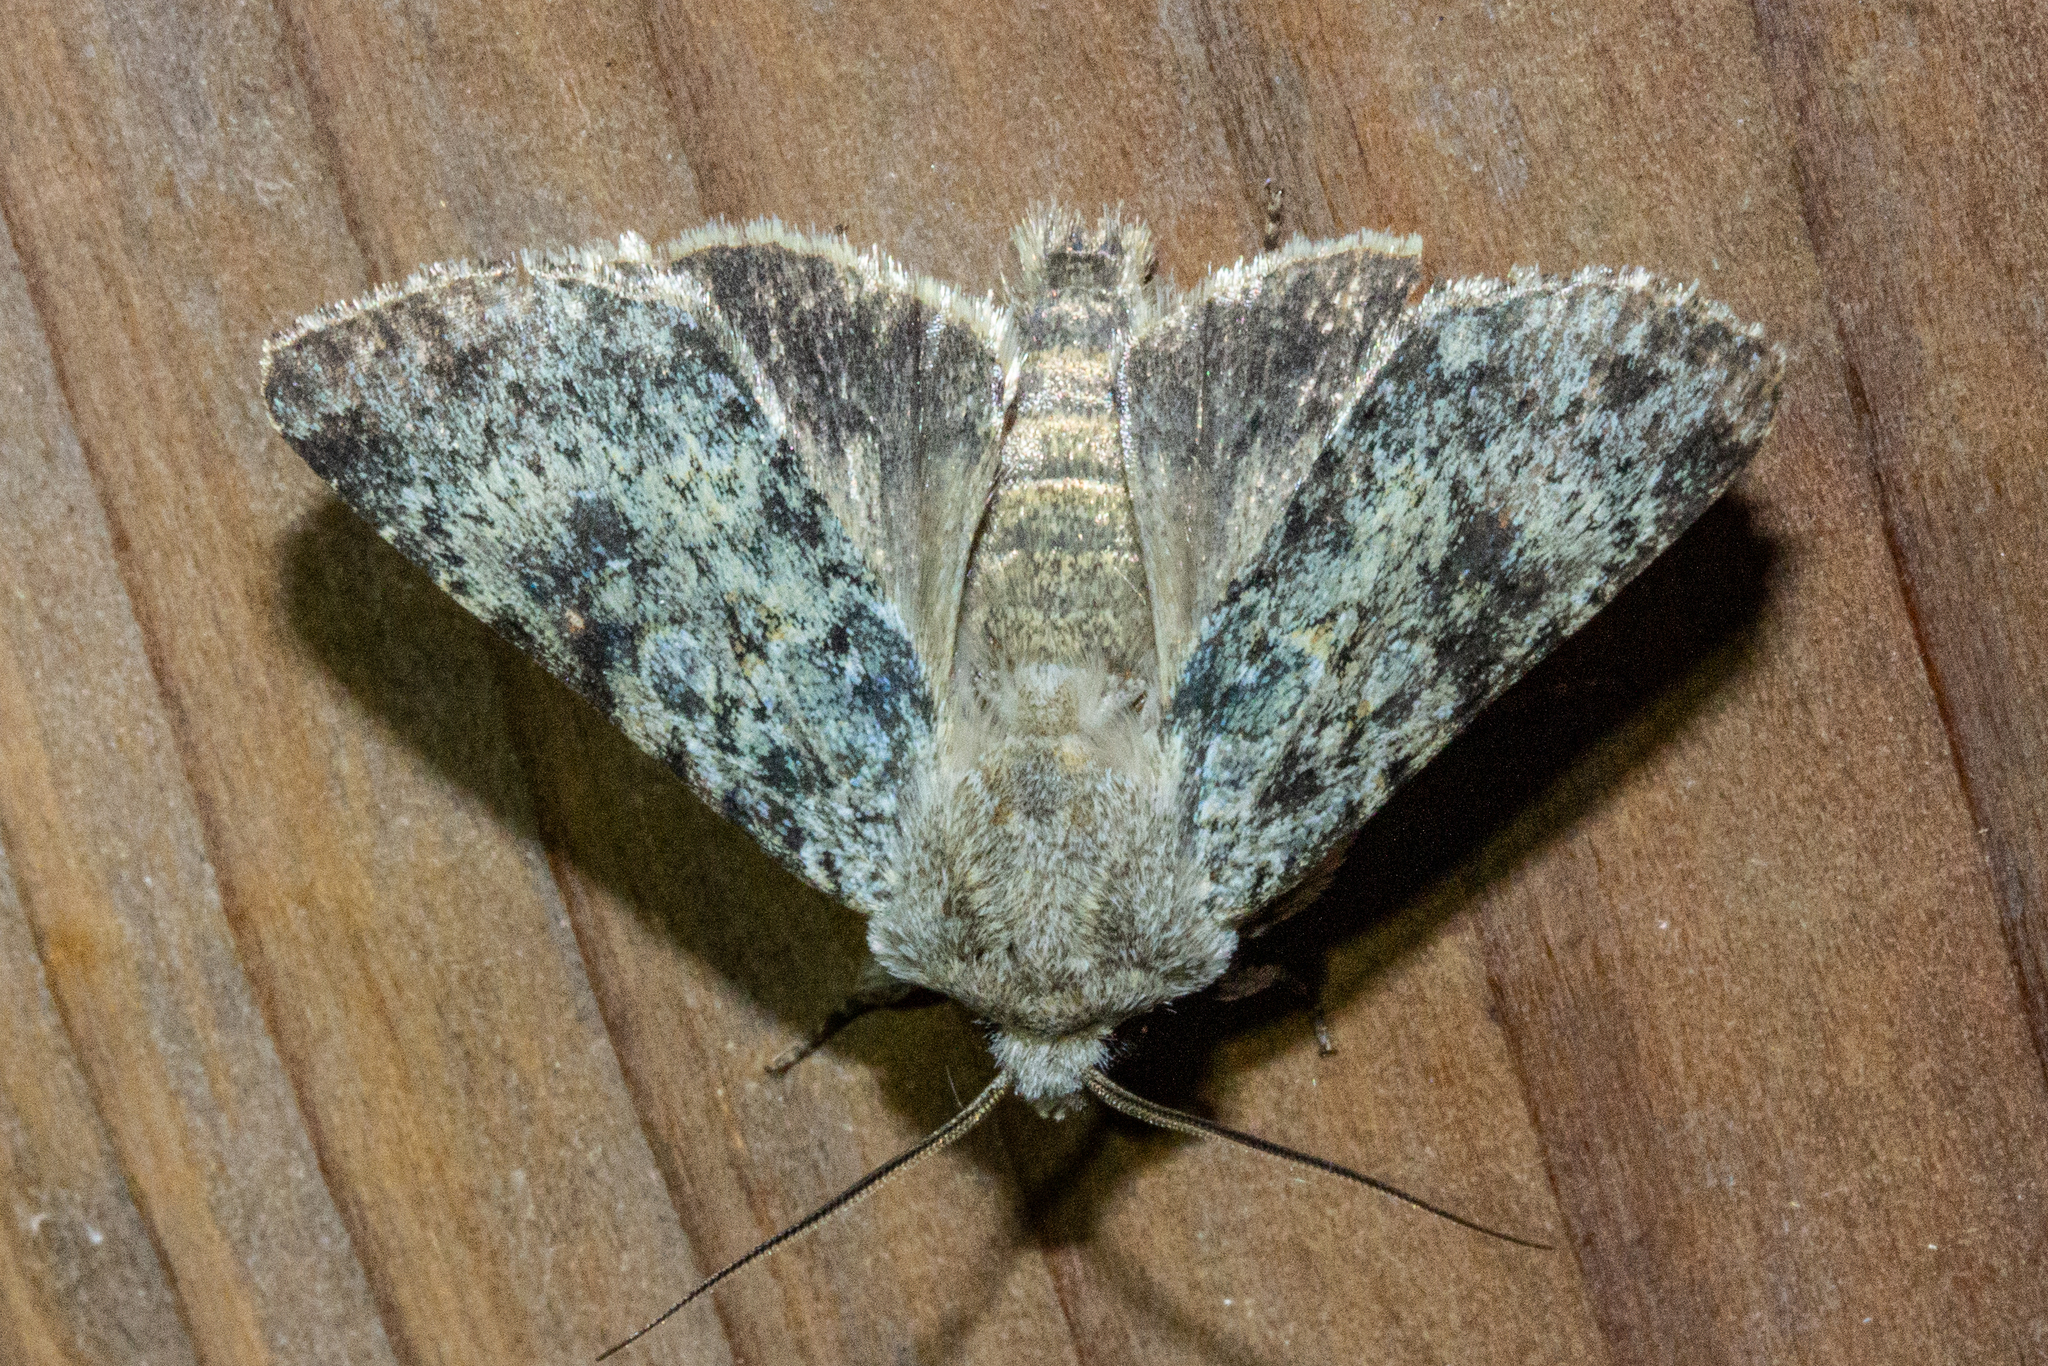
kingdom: Animalia
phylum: Arthropoda
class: Insecta
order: Lepidoptera
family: Noctuidae
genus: Ichneutica
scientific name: Ichneutica cuneata
